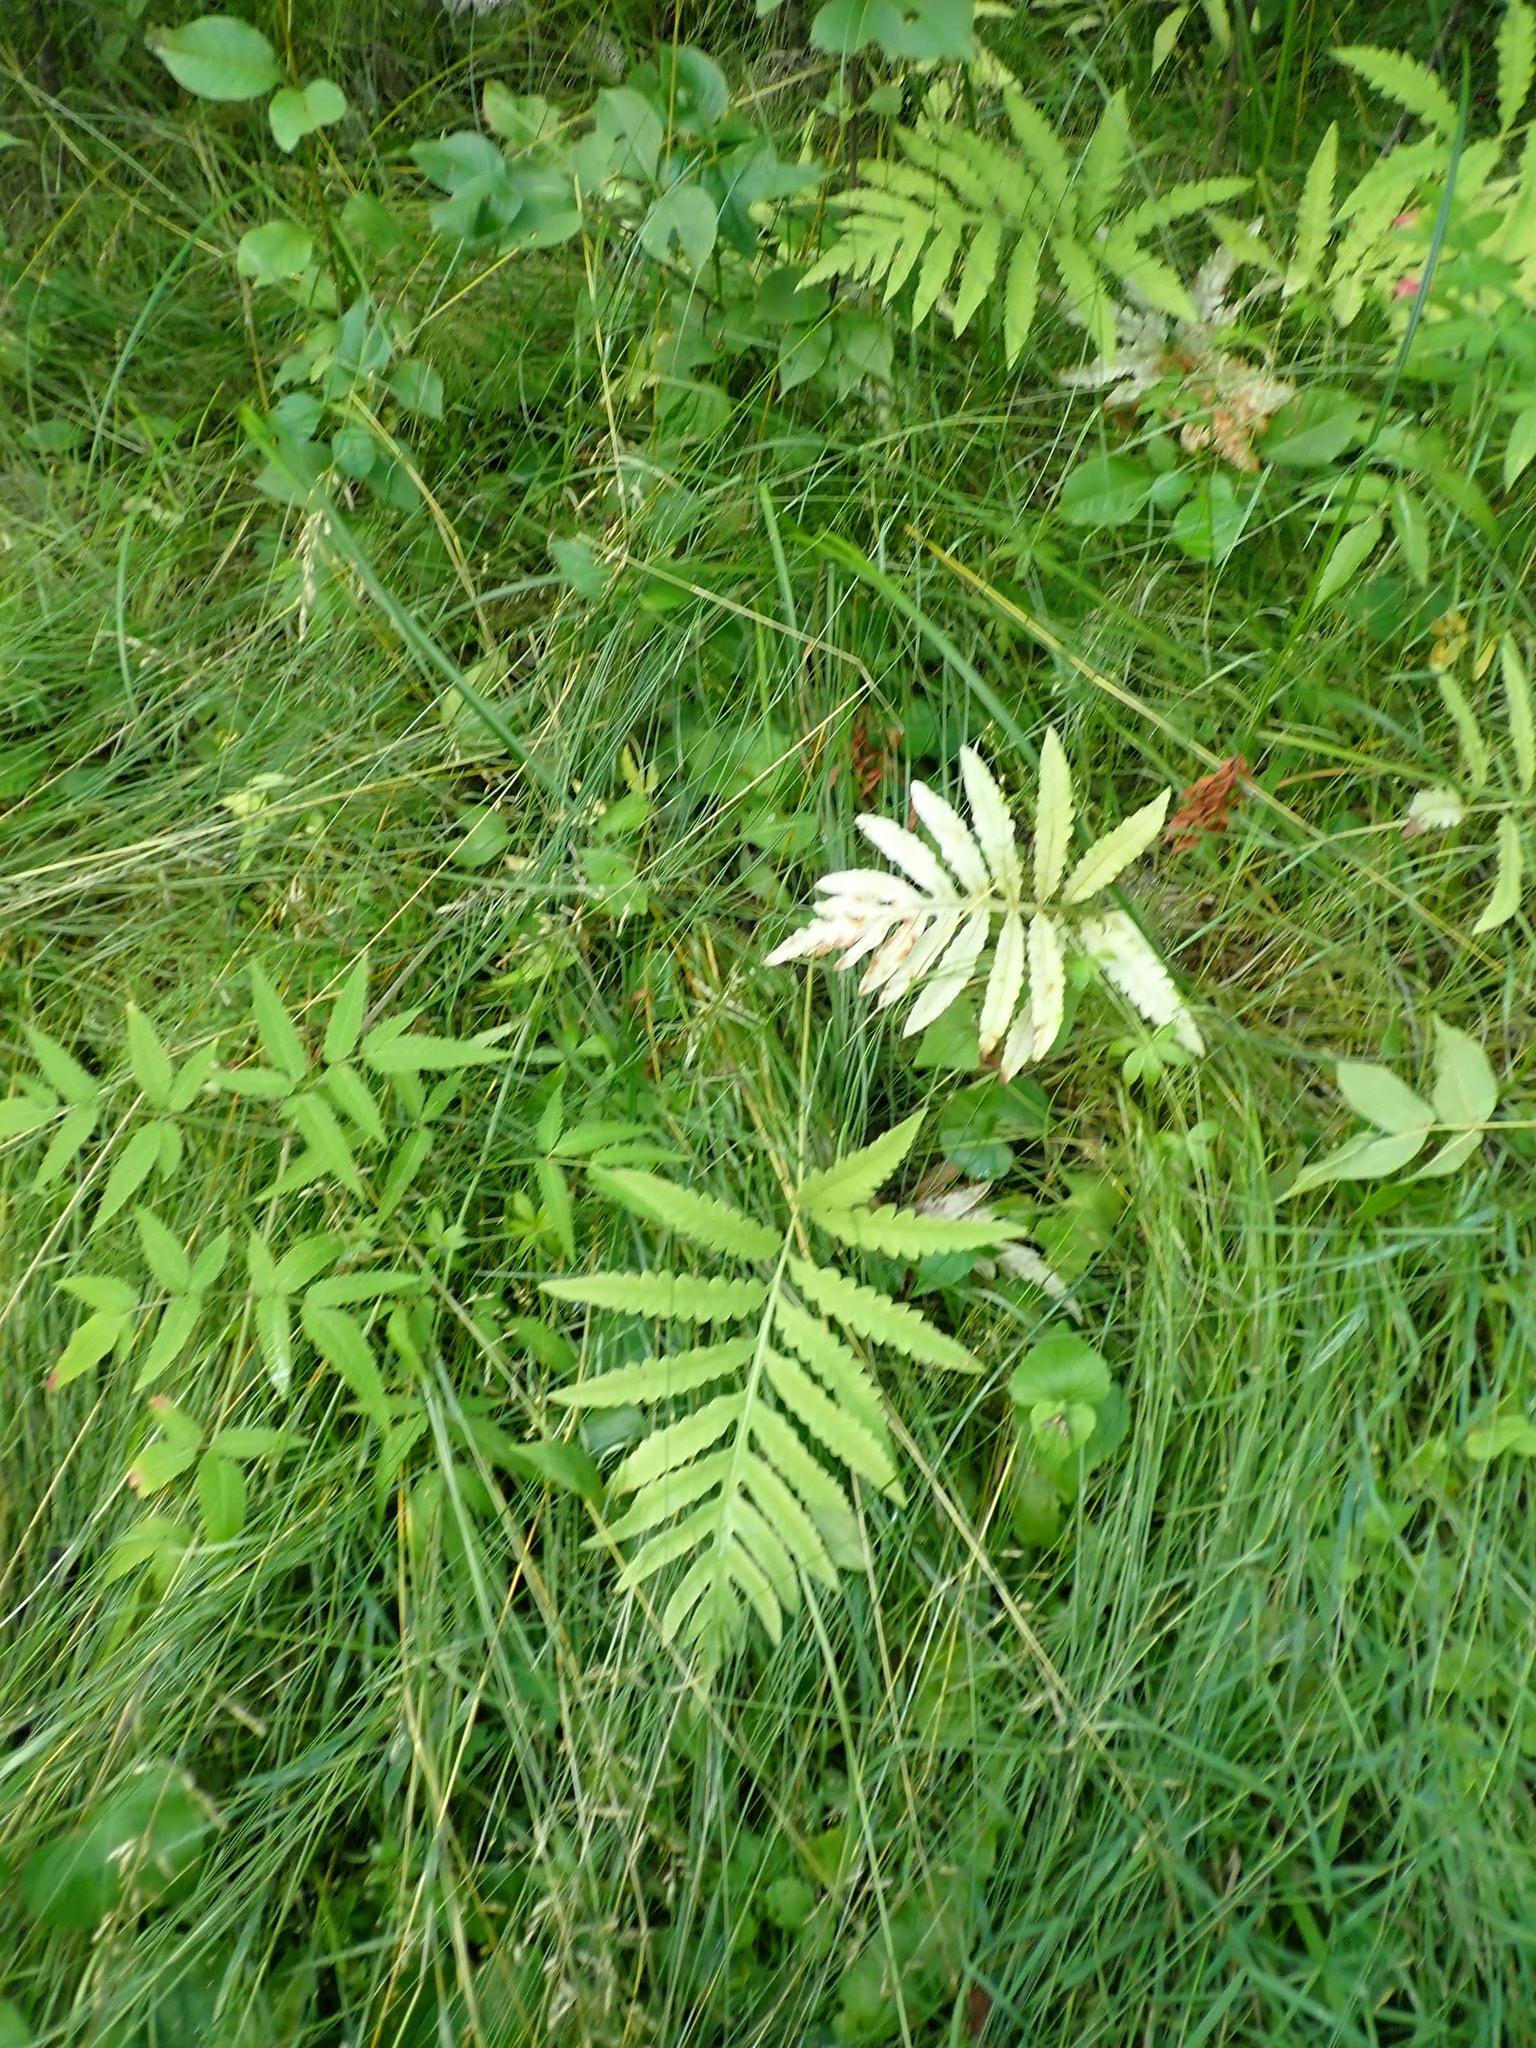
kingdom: Plantae
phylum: Tracheophyta
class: Polypodiopsida
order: Polypodiales
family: Onocleaceae
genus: Onoclea
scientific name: Onoclea sensibilis
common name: Sensitive fern
